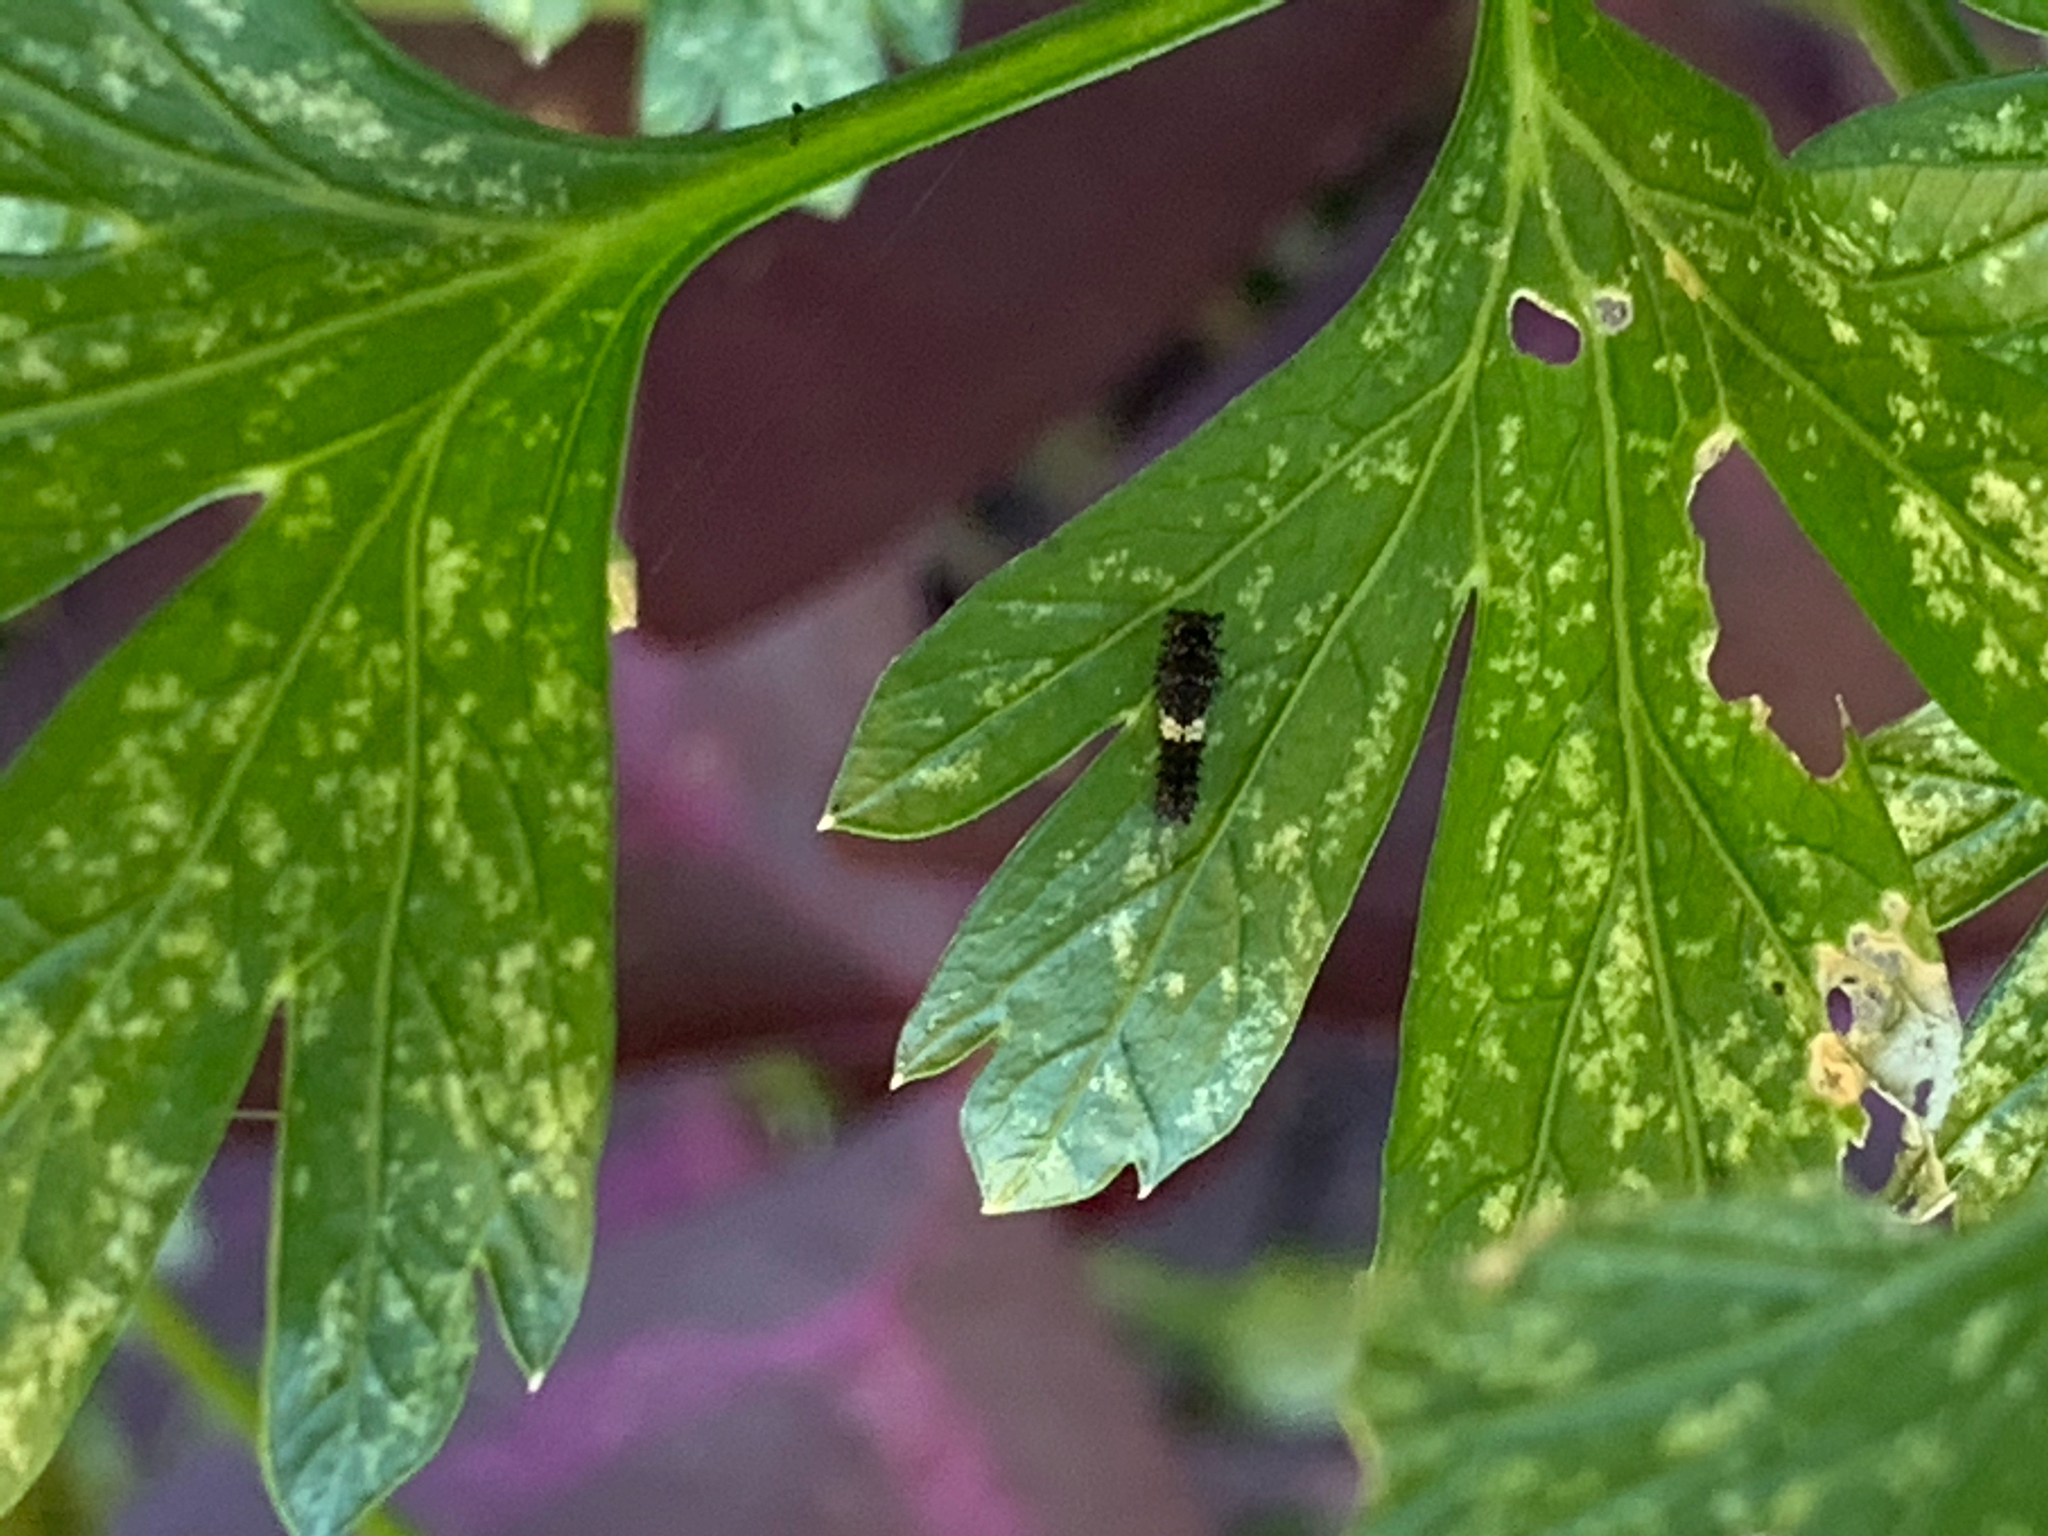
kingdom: Animalia
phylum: Arthropoda
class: Insecta
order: Lepidoptera
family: Papilionidae
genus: Papilio
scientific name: Papilio polyxenes
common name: Black swallowtail
